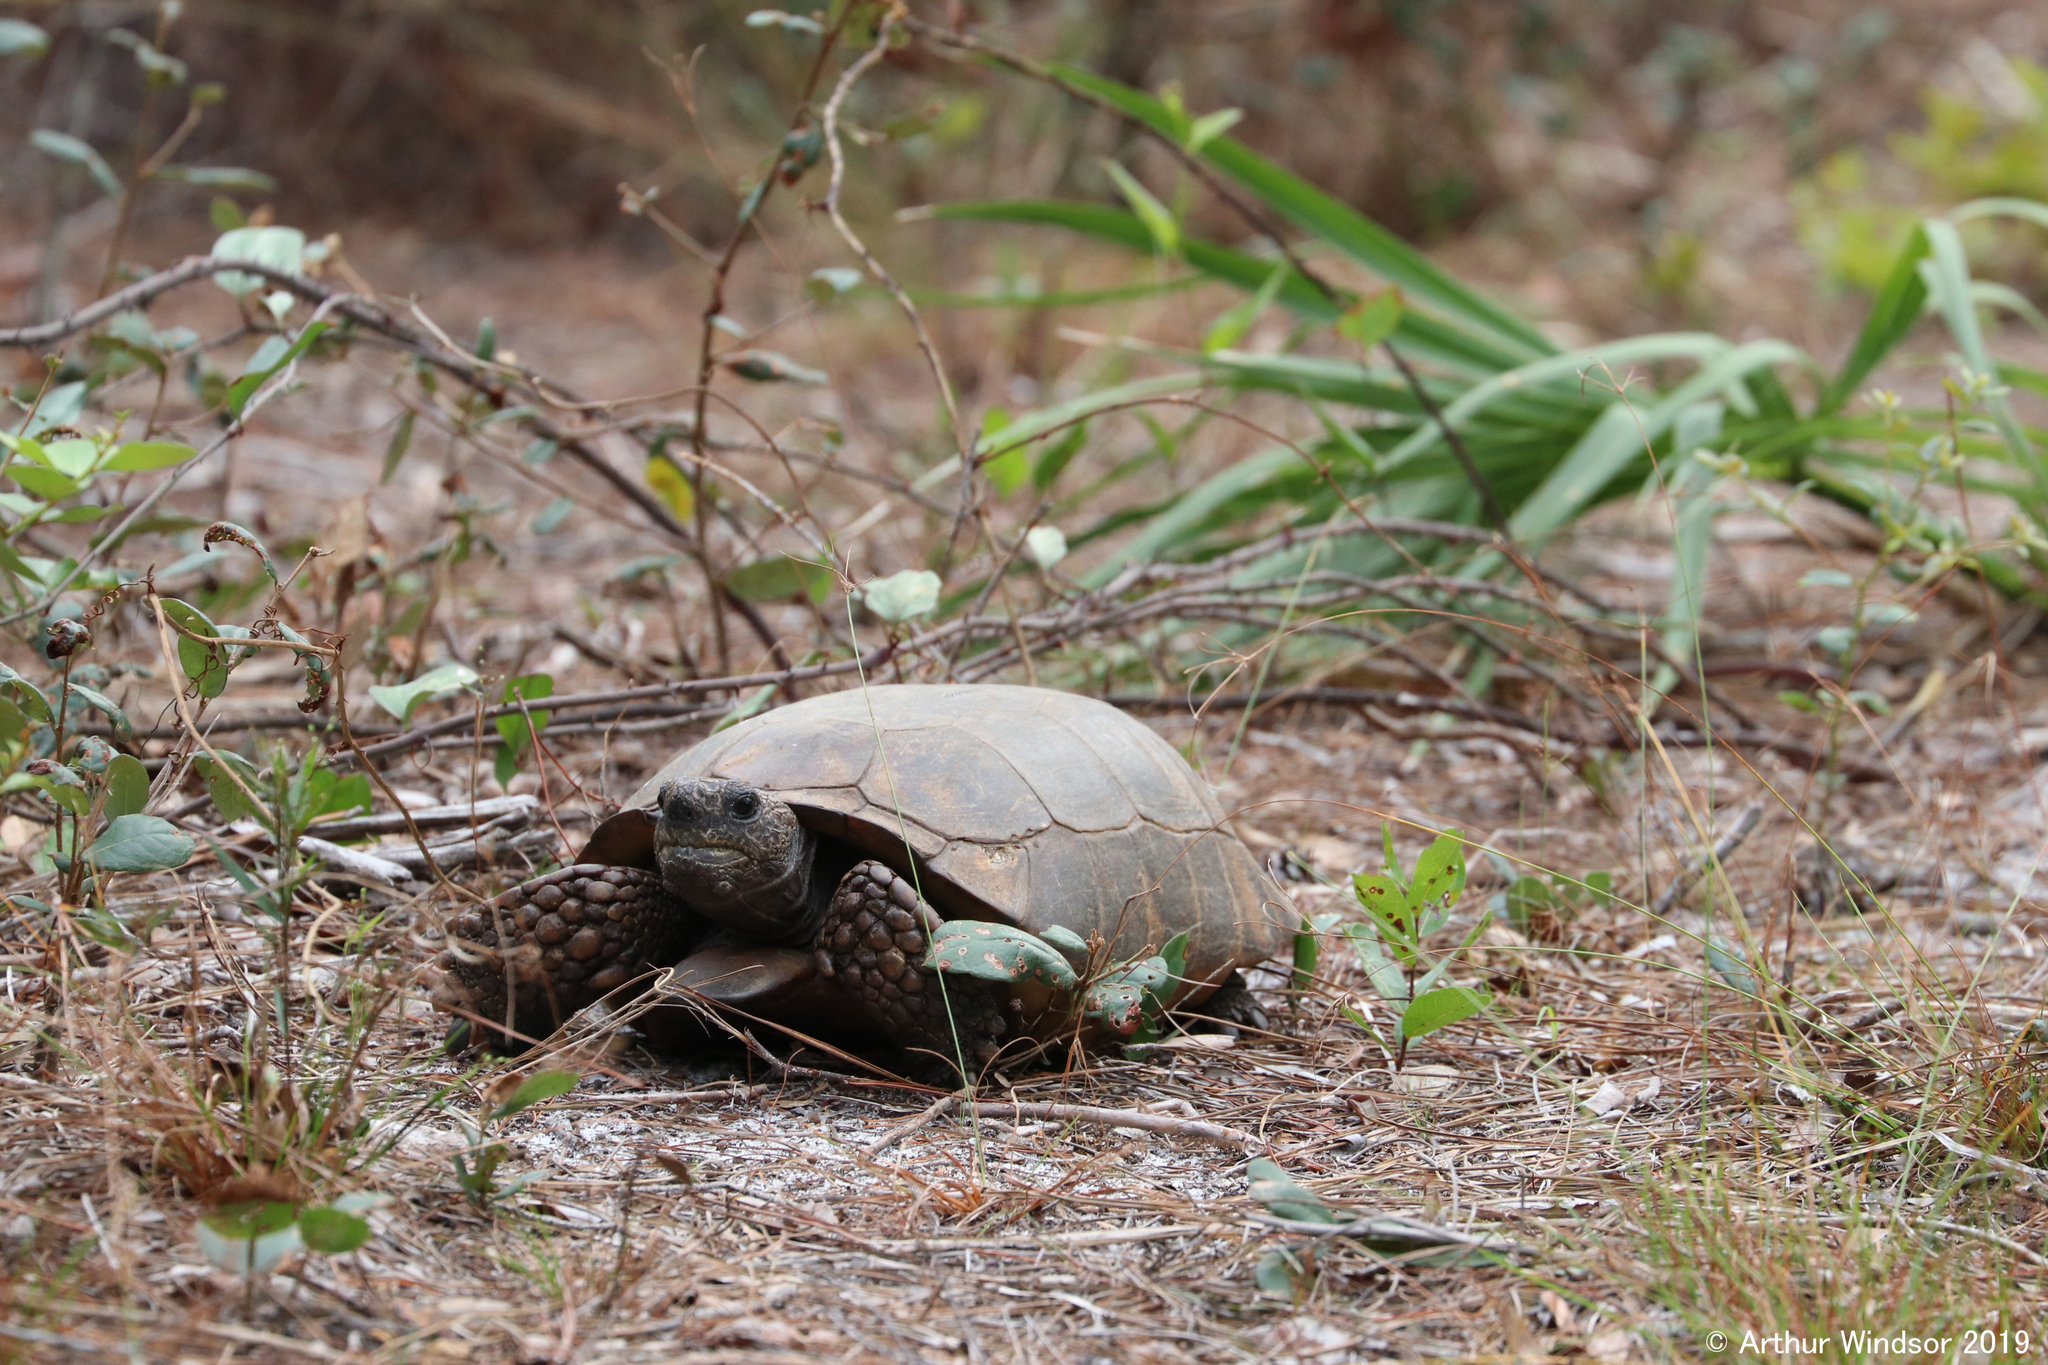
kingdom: Animalia
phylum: Chordata
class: Testudines
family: Testudinidae
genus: Gopherus
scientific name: Gopherus polyphemus
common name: Florida gopher tortoise
